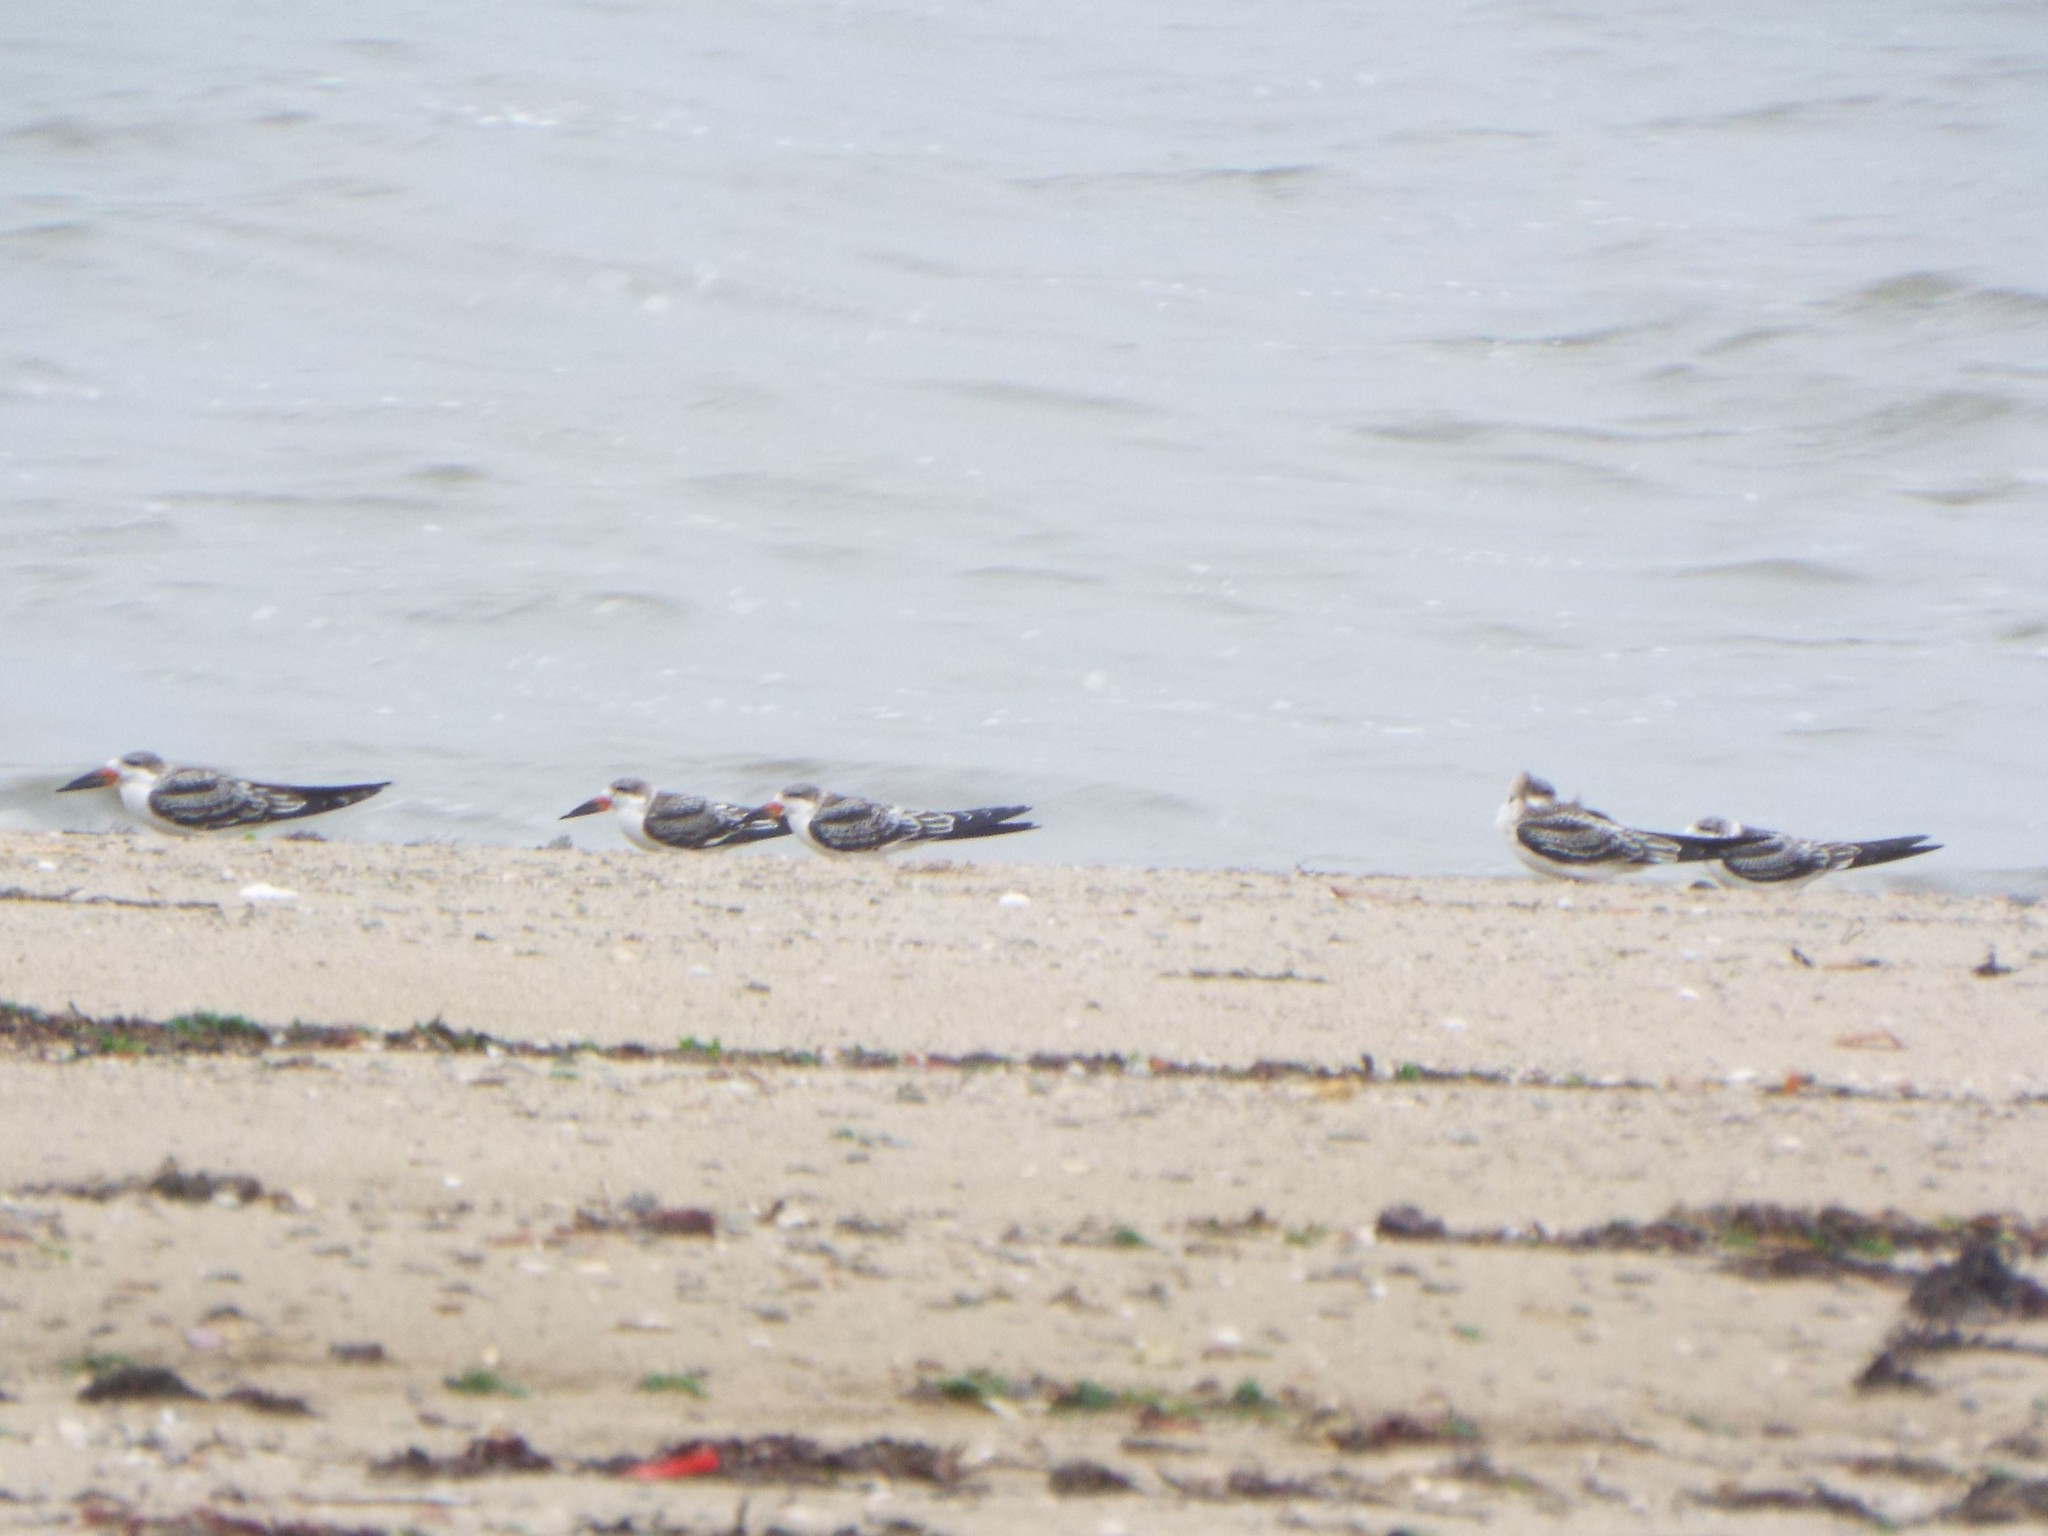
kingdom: Animalia
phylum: Chordata
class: Aves
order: Charadriiformes
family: Laridae
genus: Rynchops
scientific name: Rynchops niger
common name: Black skimmer
